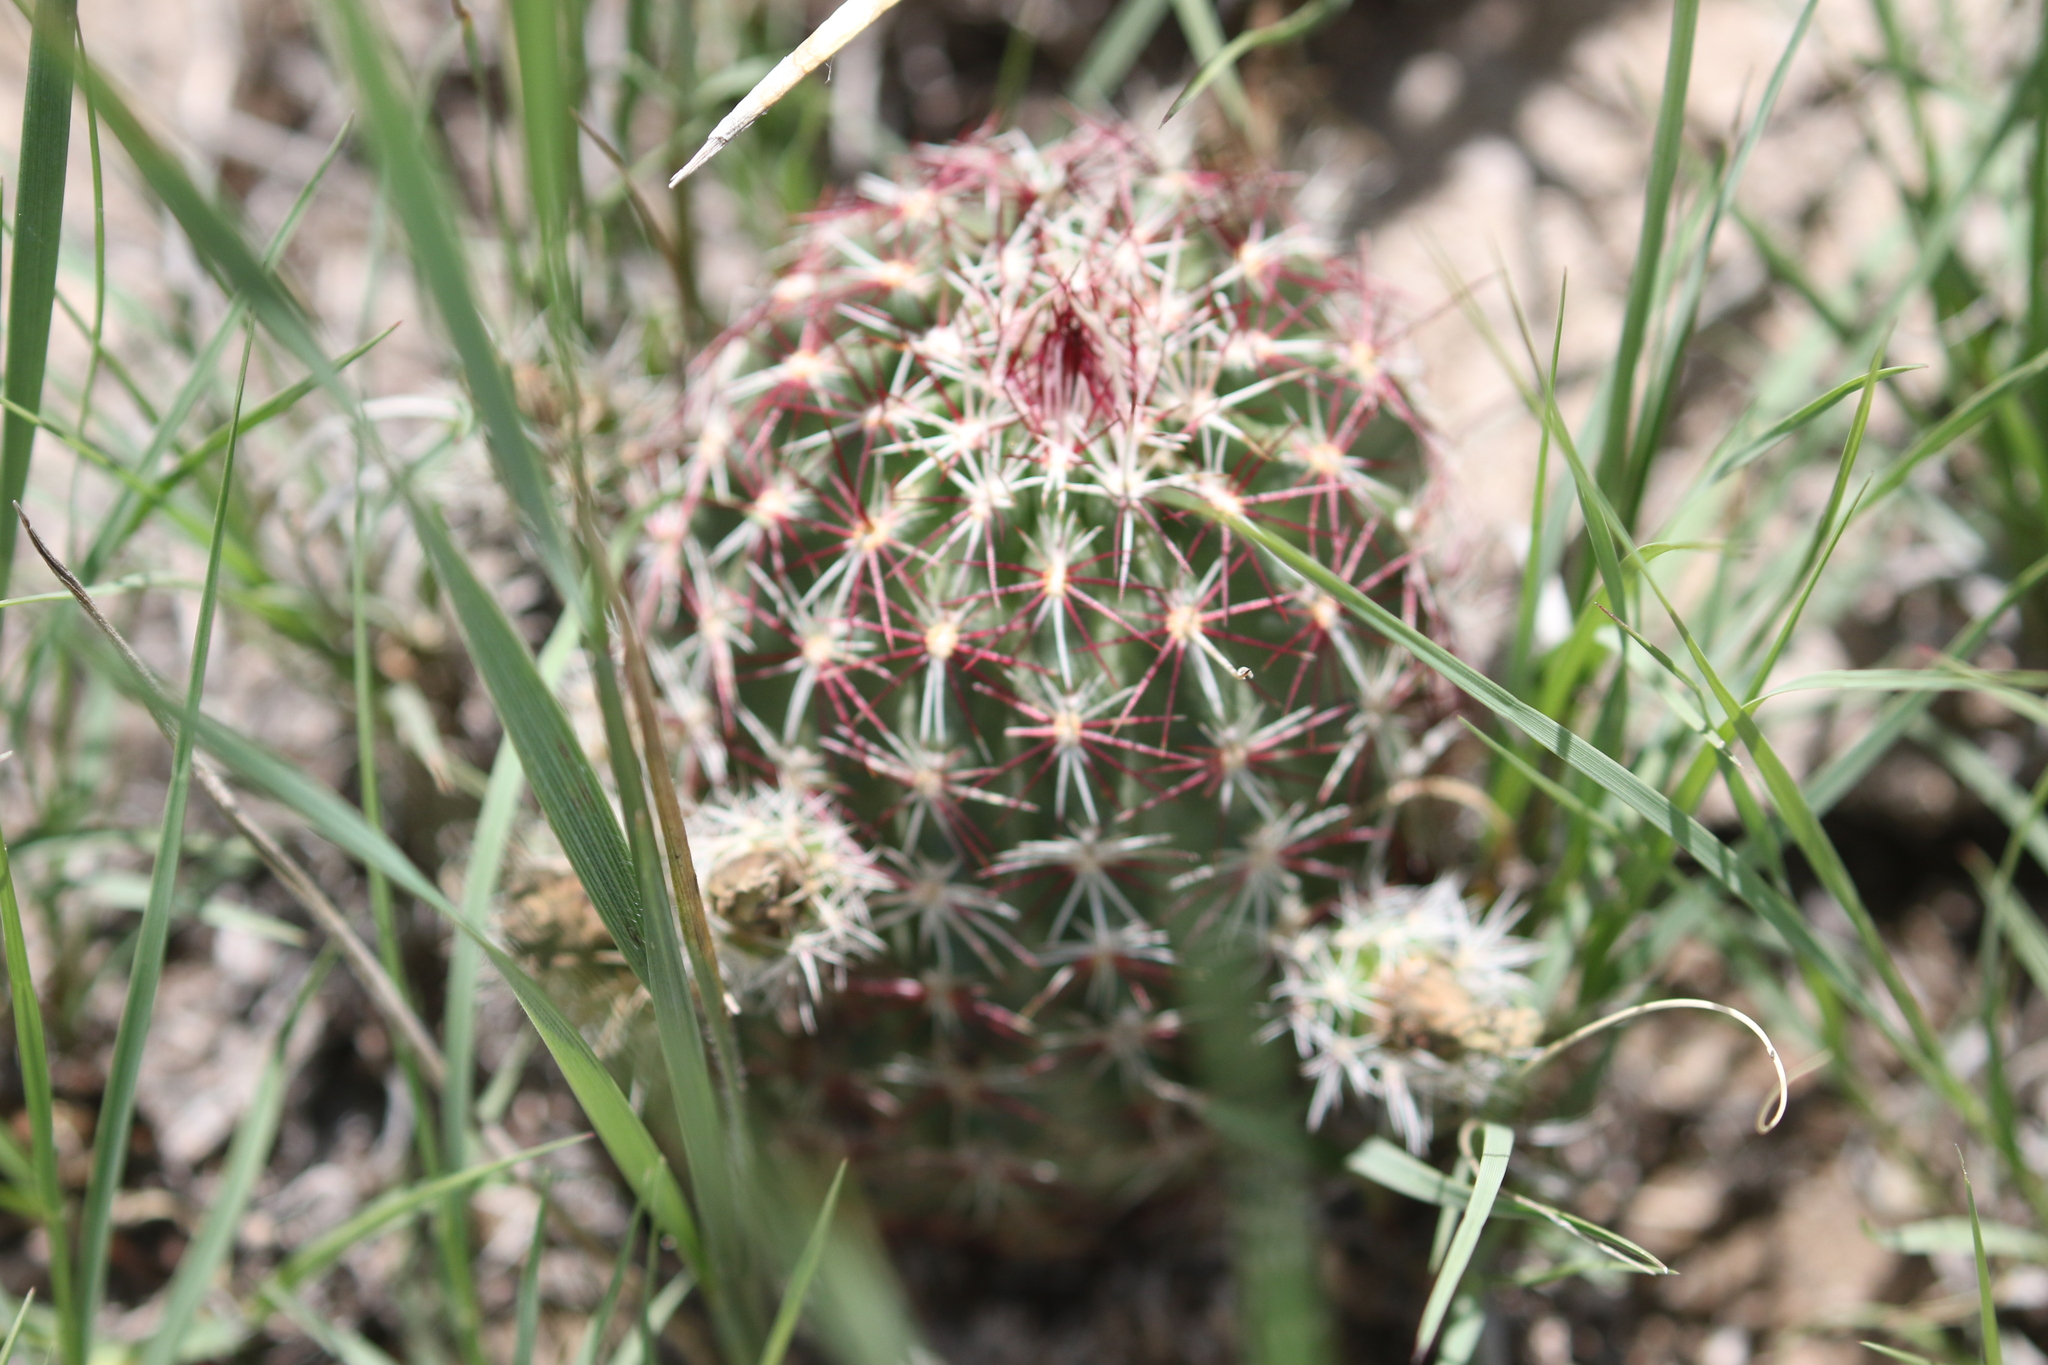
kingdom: Plantae
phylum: Tracheophyta
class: Magnoliopsida
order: Caryophyllales
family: Cactaceae
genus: Echinocereus
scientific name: Echinocereus viridiflorus
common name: Nylon hedgehog cactus
